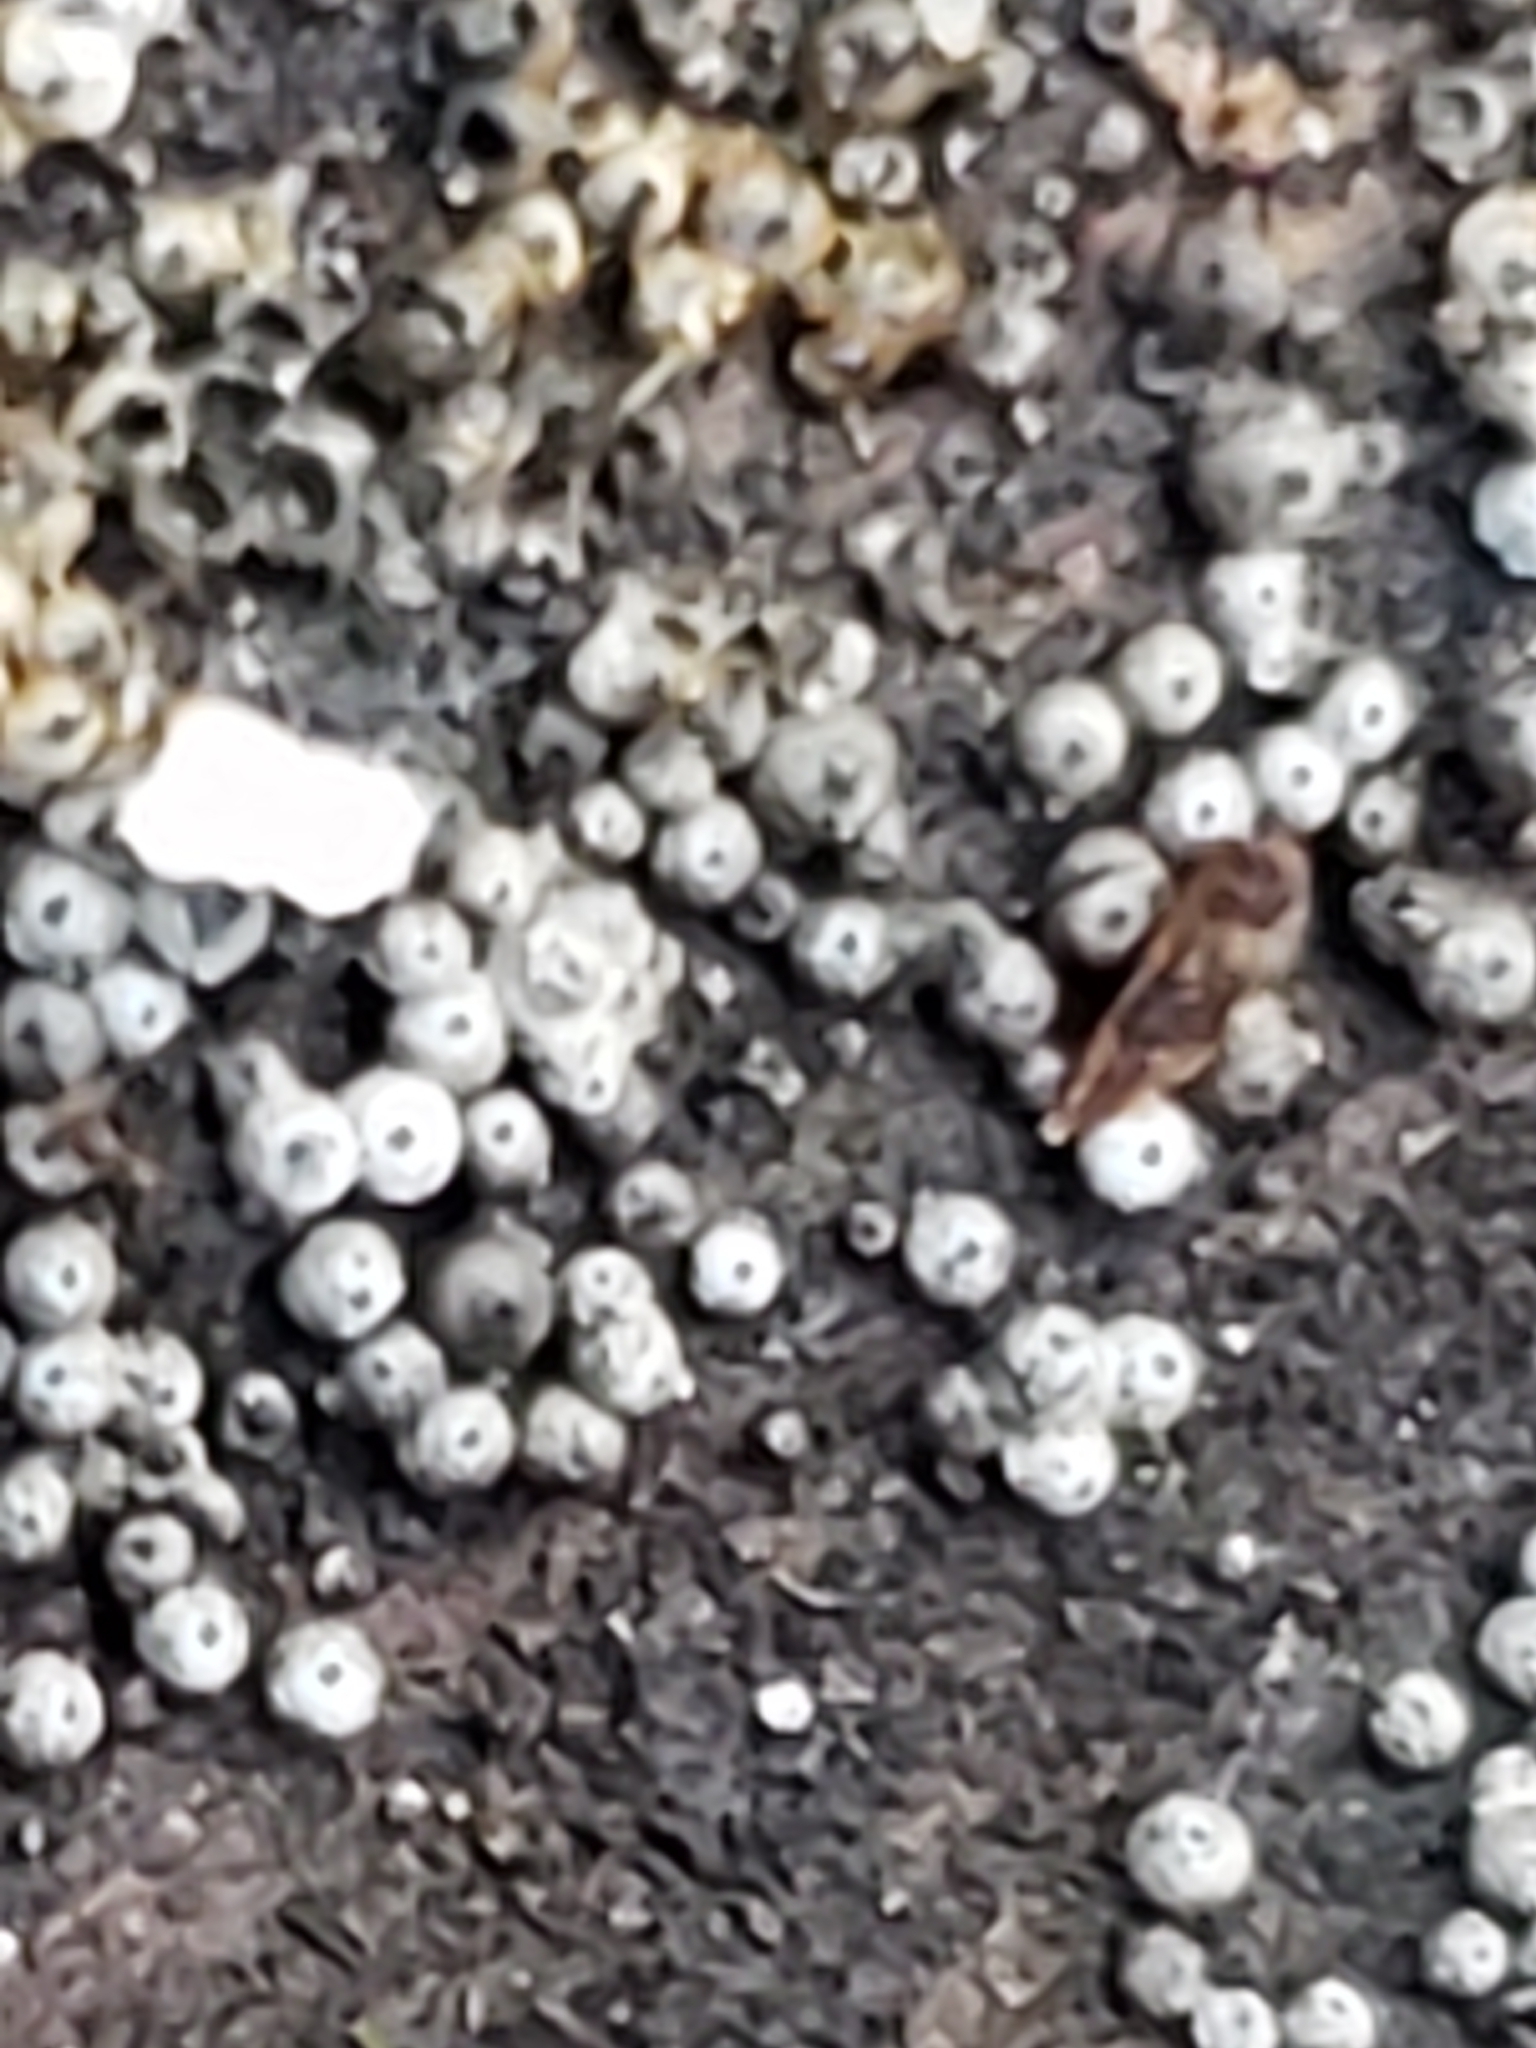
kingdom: Fungi
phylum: Ascomycota
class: Sordariomycetes
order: Sordariales
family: Lasiosphaeriaceae
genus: Lasiosphaeria
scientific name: Lasiosphaeria ovina
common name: Woolly woodwart
